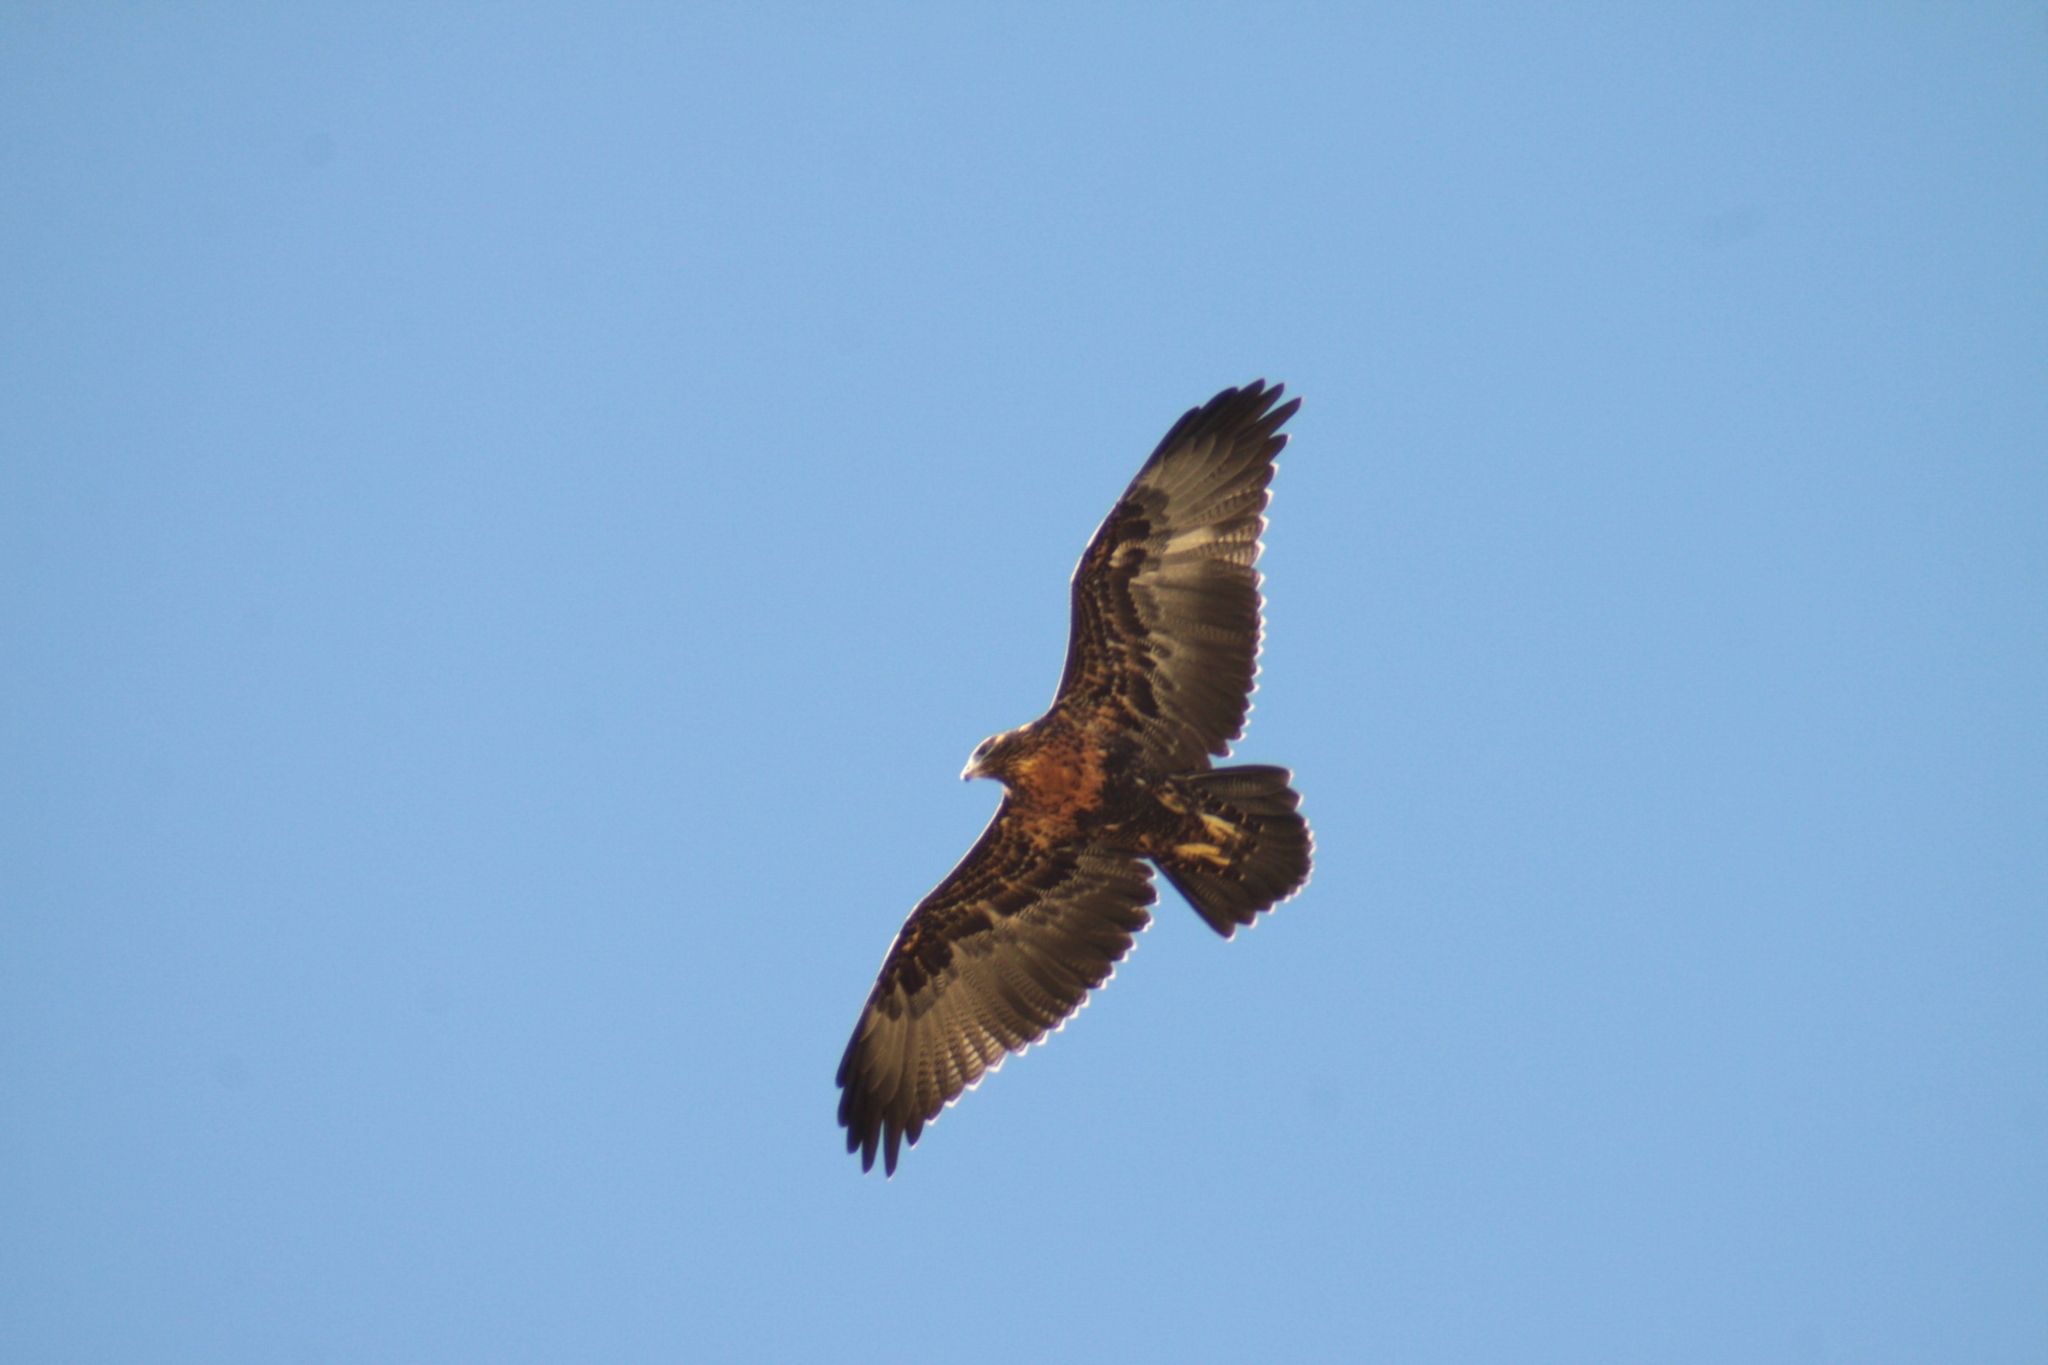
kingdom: Animalia
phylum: Chordata
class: Aves
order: Accipitriformes
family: Accipitridae
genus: Geranoaetus
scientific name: Geranoaetus melanoleucus
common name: Black-chested buzzard-eagle
